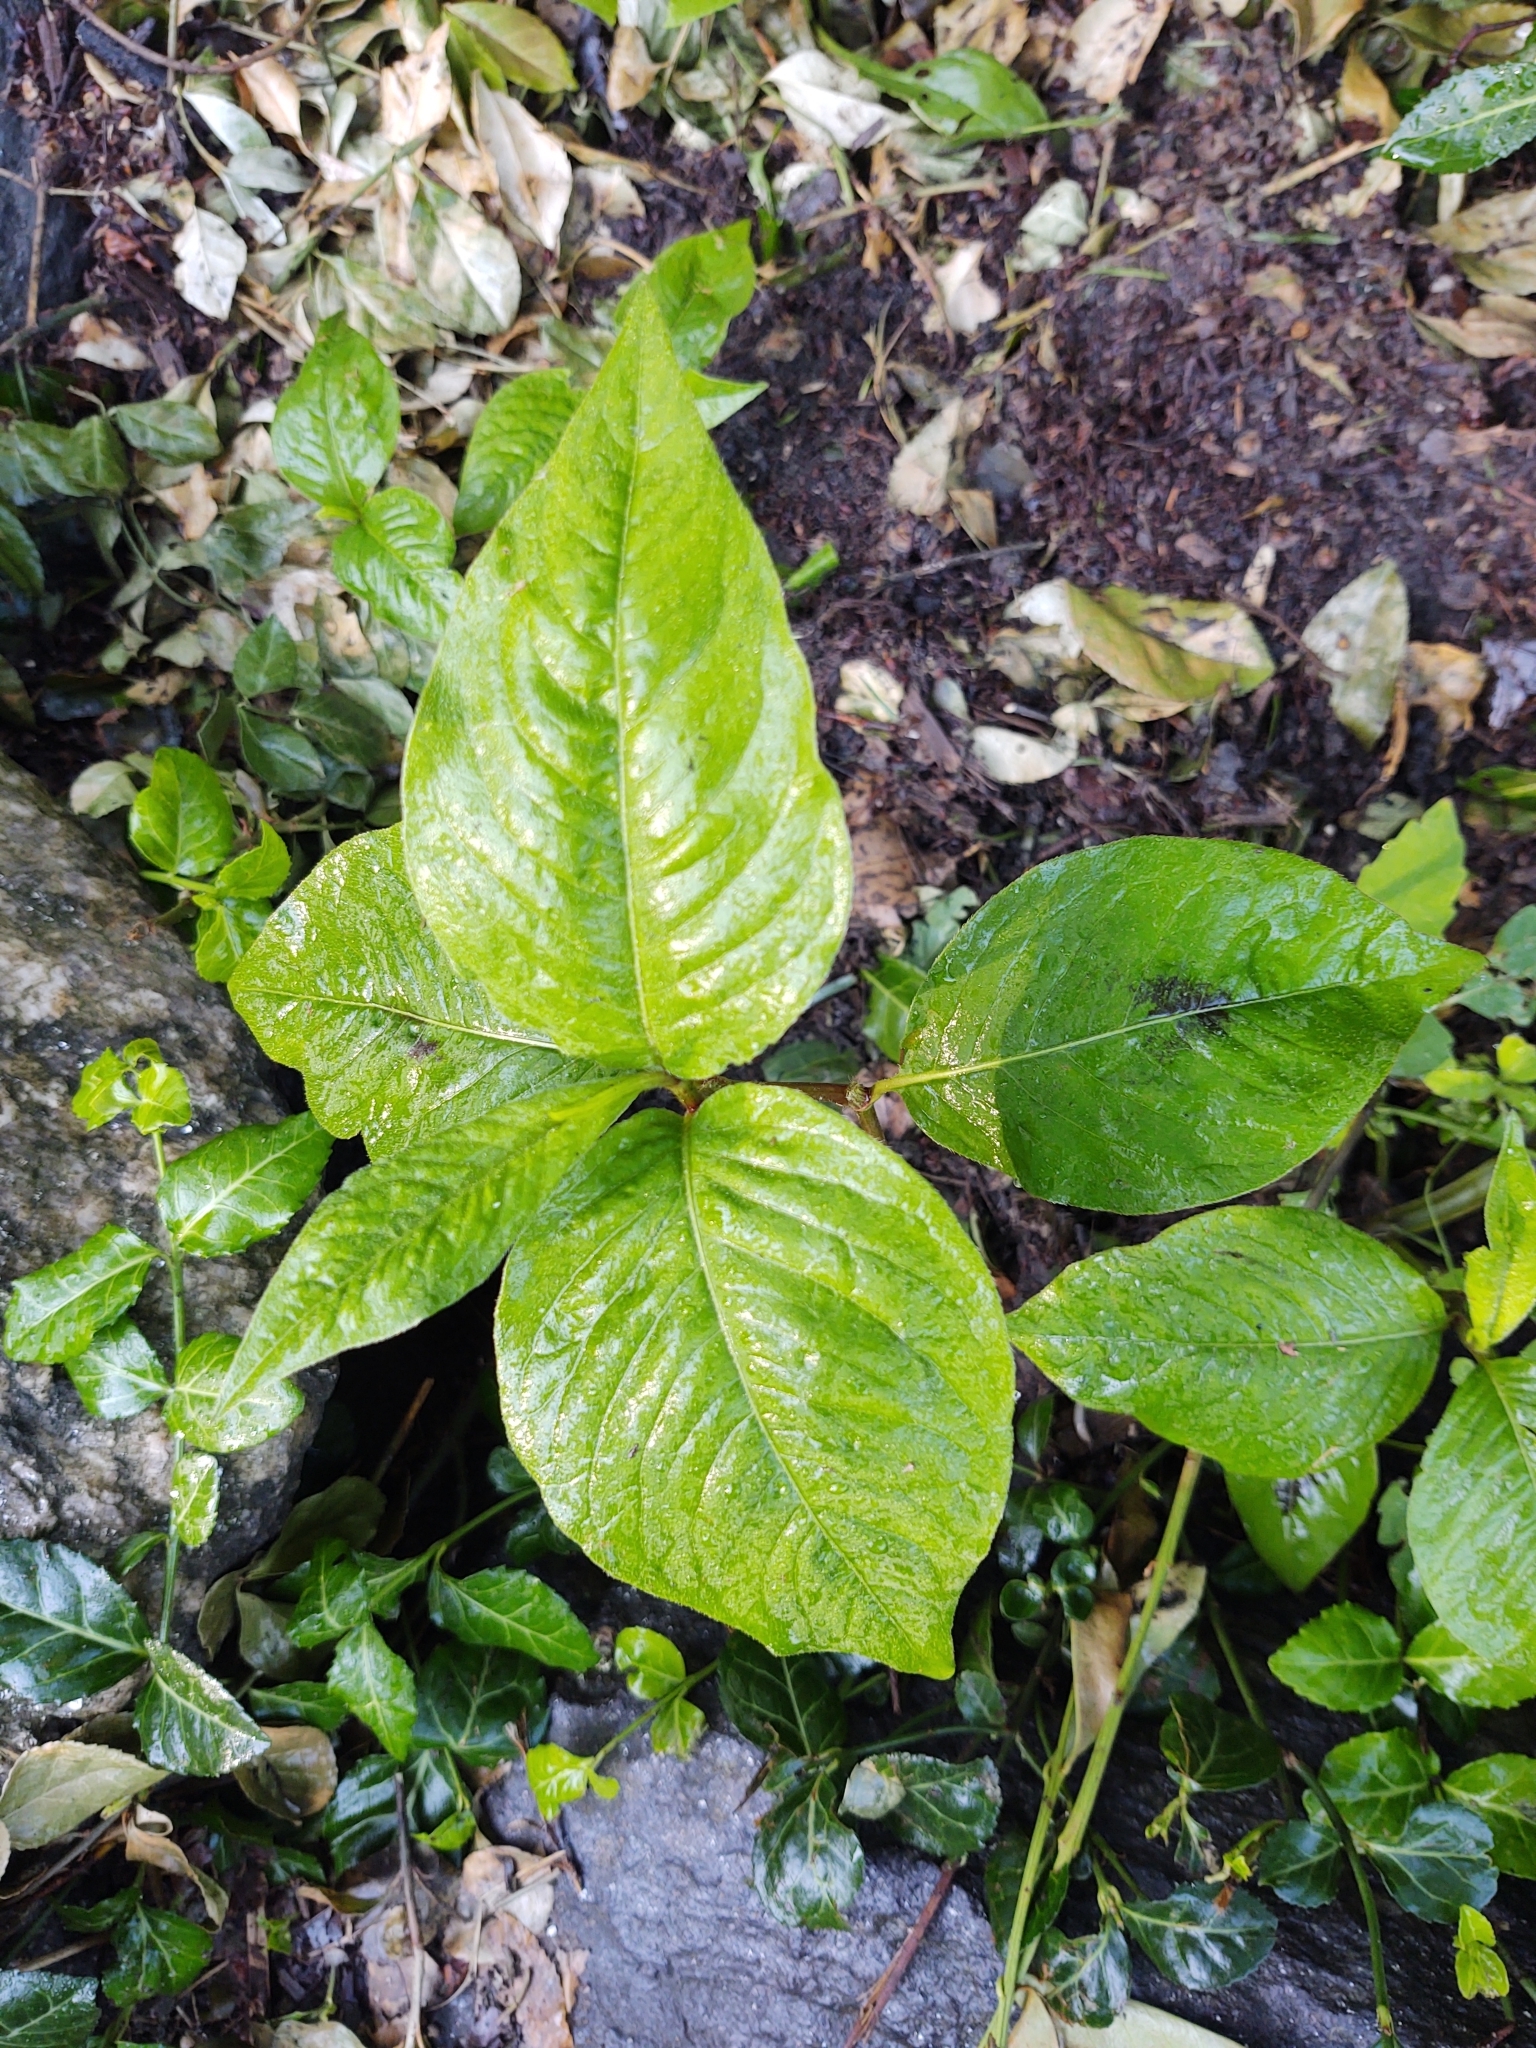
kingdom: Plantae
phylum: Tracheophyta
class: Magnoliopsida
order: Caryophyllales
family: Polygonaceae
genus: Persicaria
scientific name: Persicaria virginiana
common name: Jumpseed
